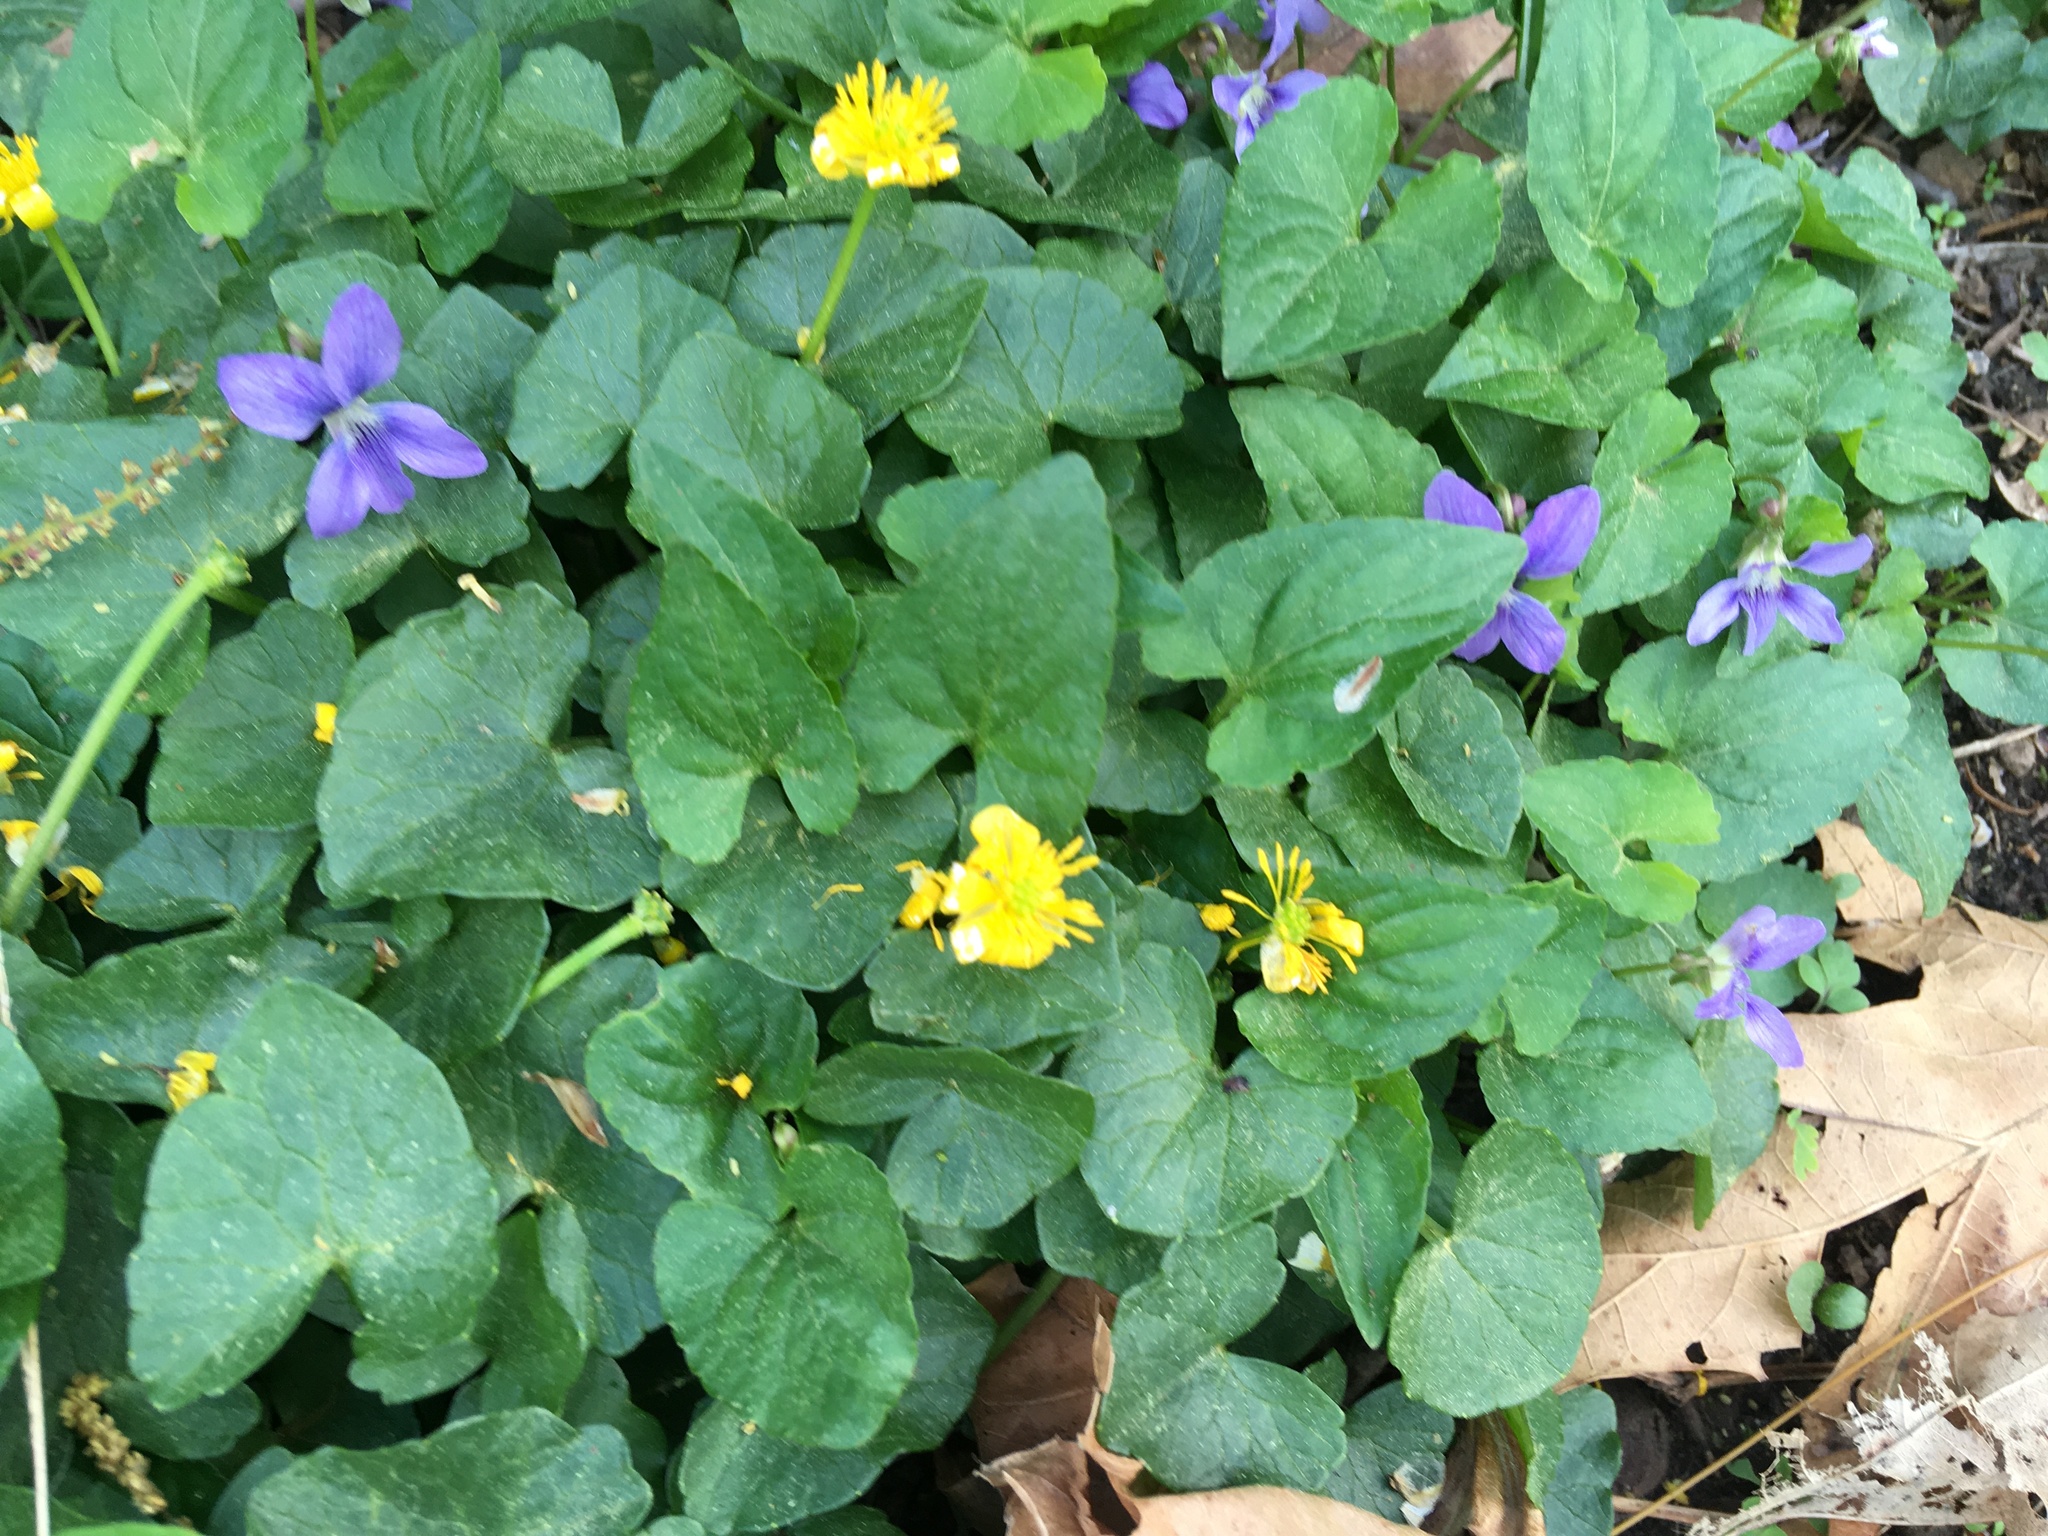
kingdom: Plantae
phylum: Tracheophyta
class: Magnoliopsida
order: Ranunculales
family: Ranunculaceae
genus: Ficaria
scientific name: Ficaria verna
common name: Lesser celandine
